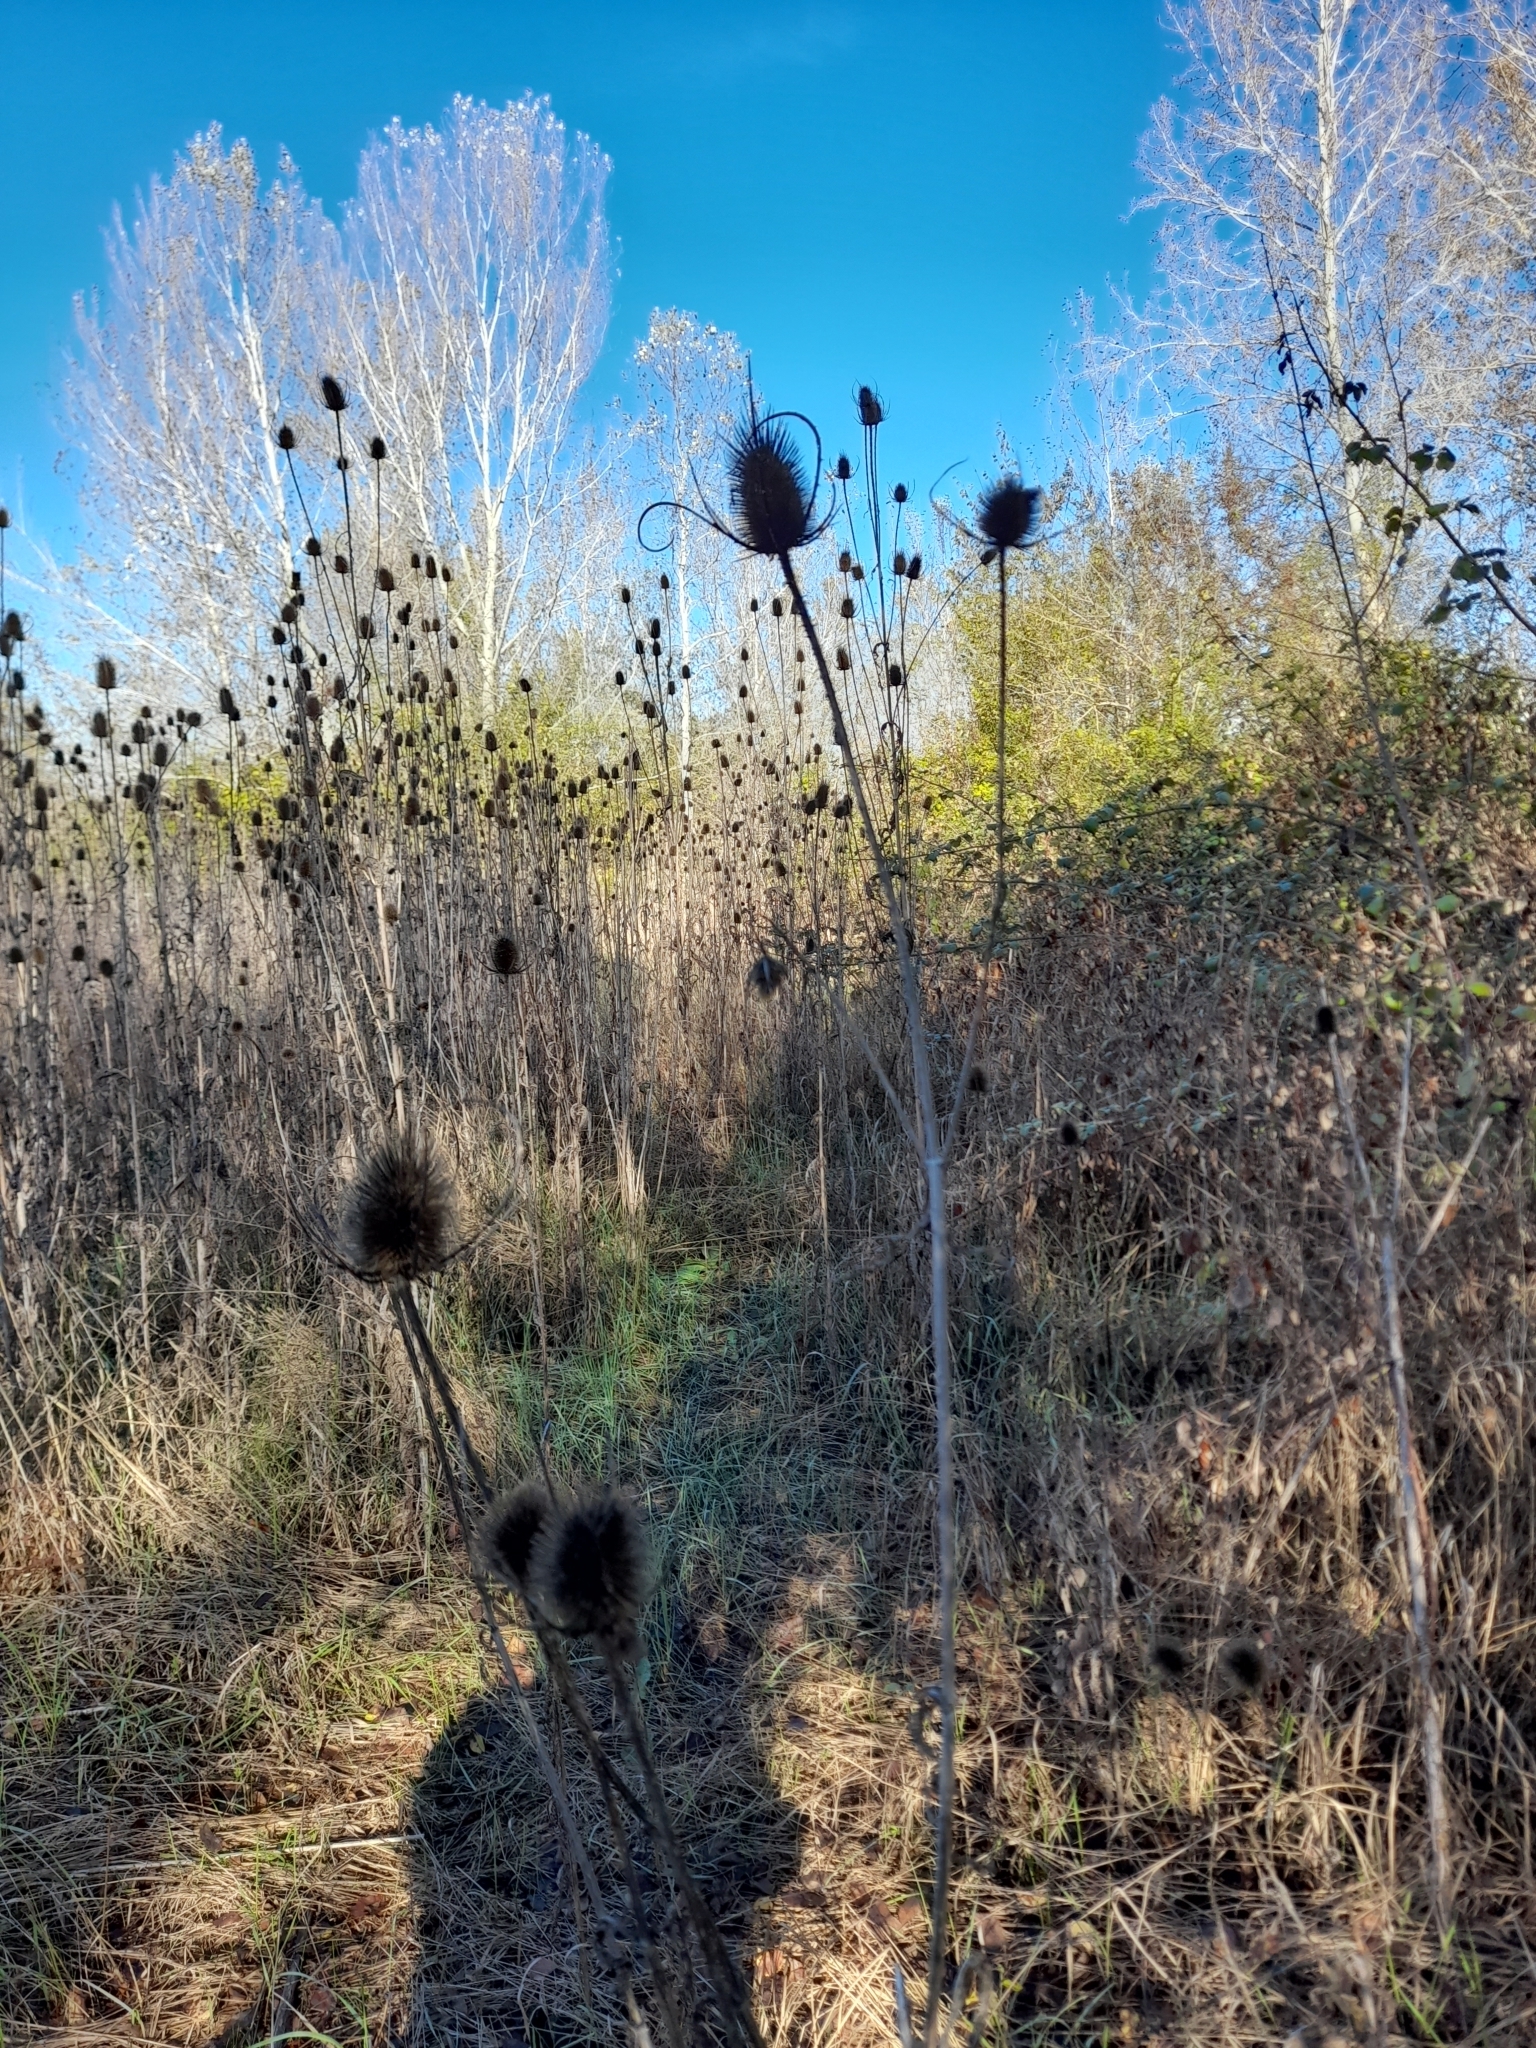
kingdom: Plantae
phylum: Tracheophyta
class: Magnoliopsida
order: Dipsacales
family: Caprifoliaceae
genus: Dipsacus
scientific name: Dipsacus fullonum
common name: Teasel
